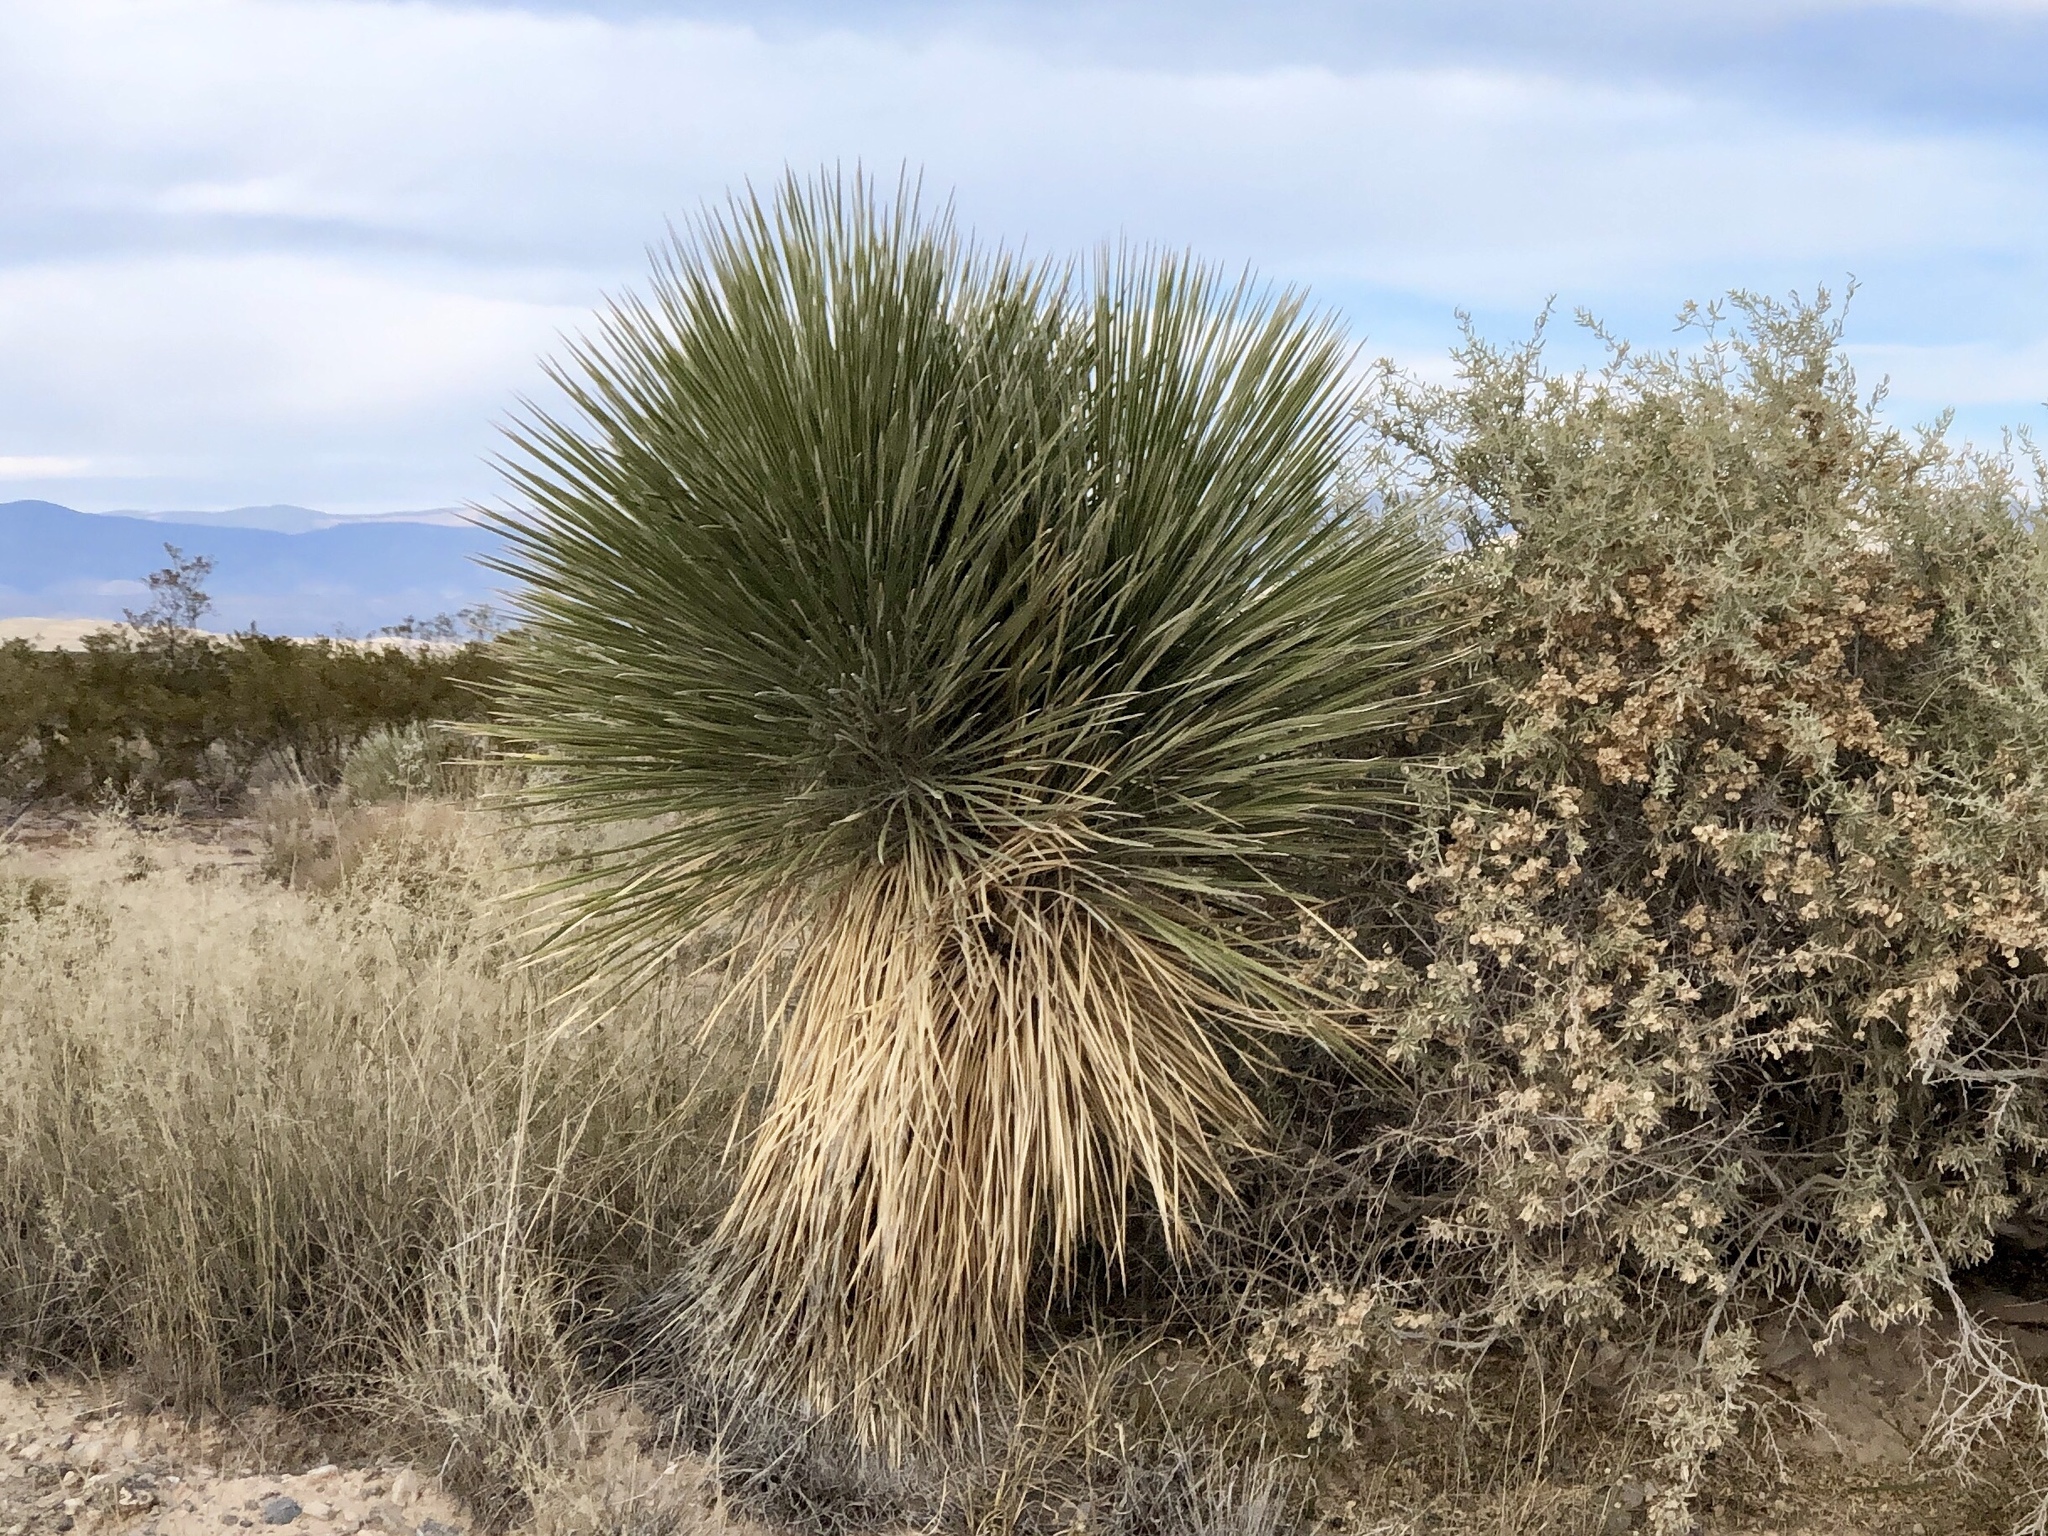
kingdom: Plantae
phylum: Tracheophyta
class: Liliopsida
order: Asparagales
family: Asparagaceae
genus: Yucca
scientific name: Yucca elata
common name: Palmella
